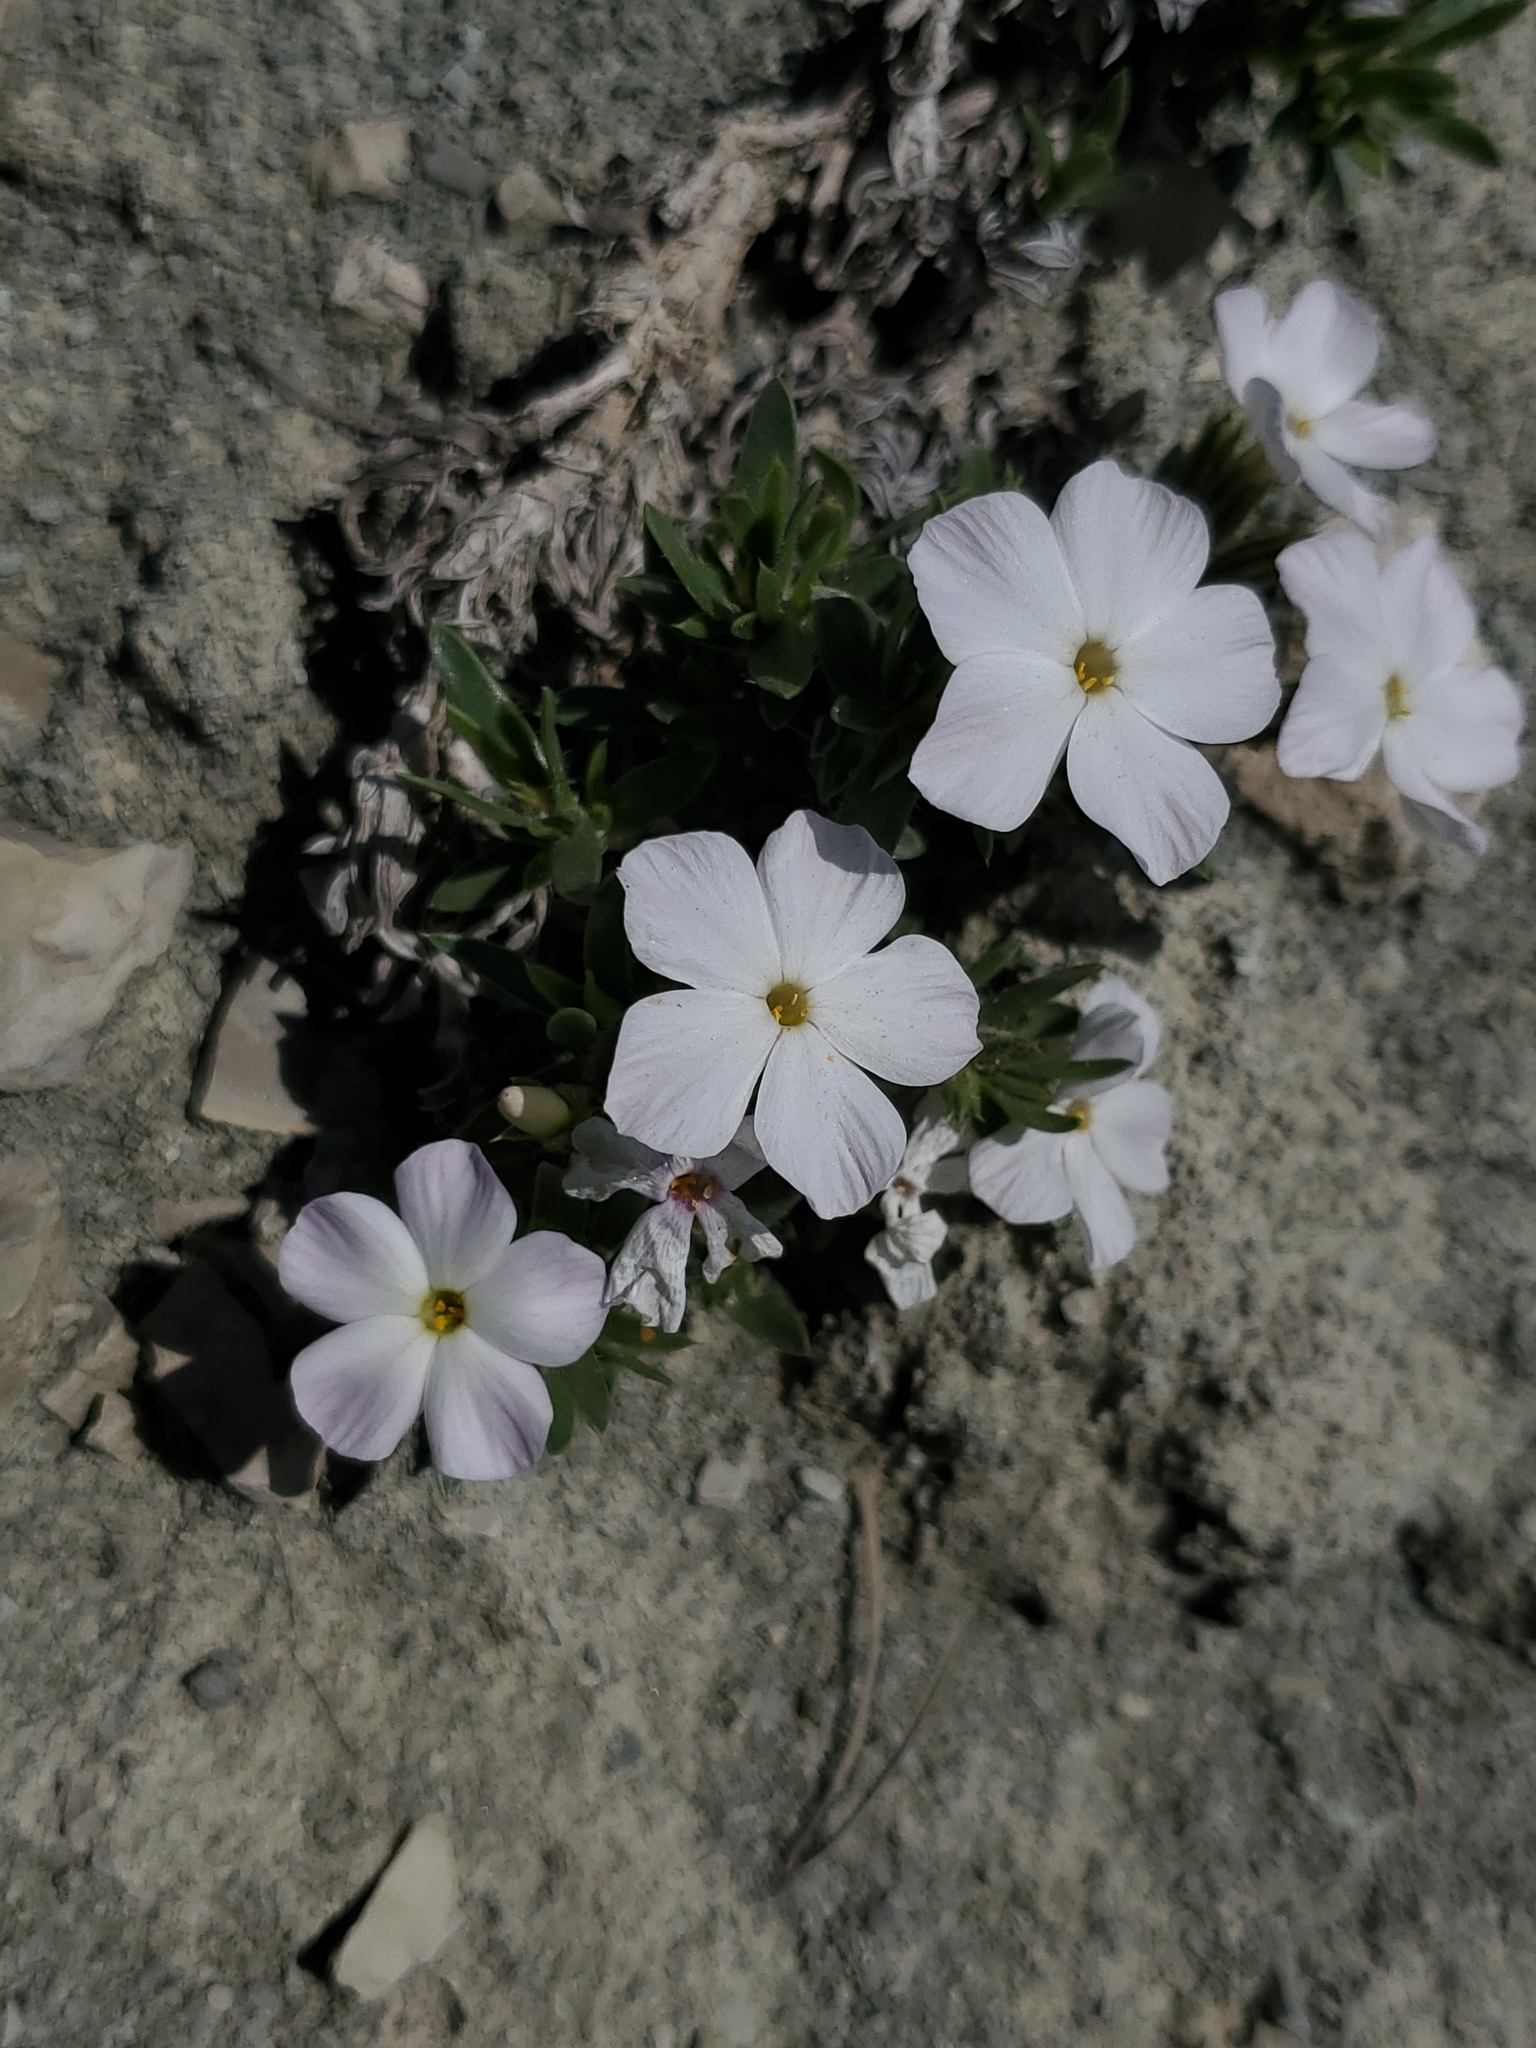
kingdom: Plantae
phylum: Tracheophyta
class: Magnoliopsida
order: Ericales
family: Polemoniaceae
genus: Phlox
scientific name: Phlox alyssifolia
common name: Blue phlox
